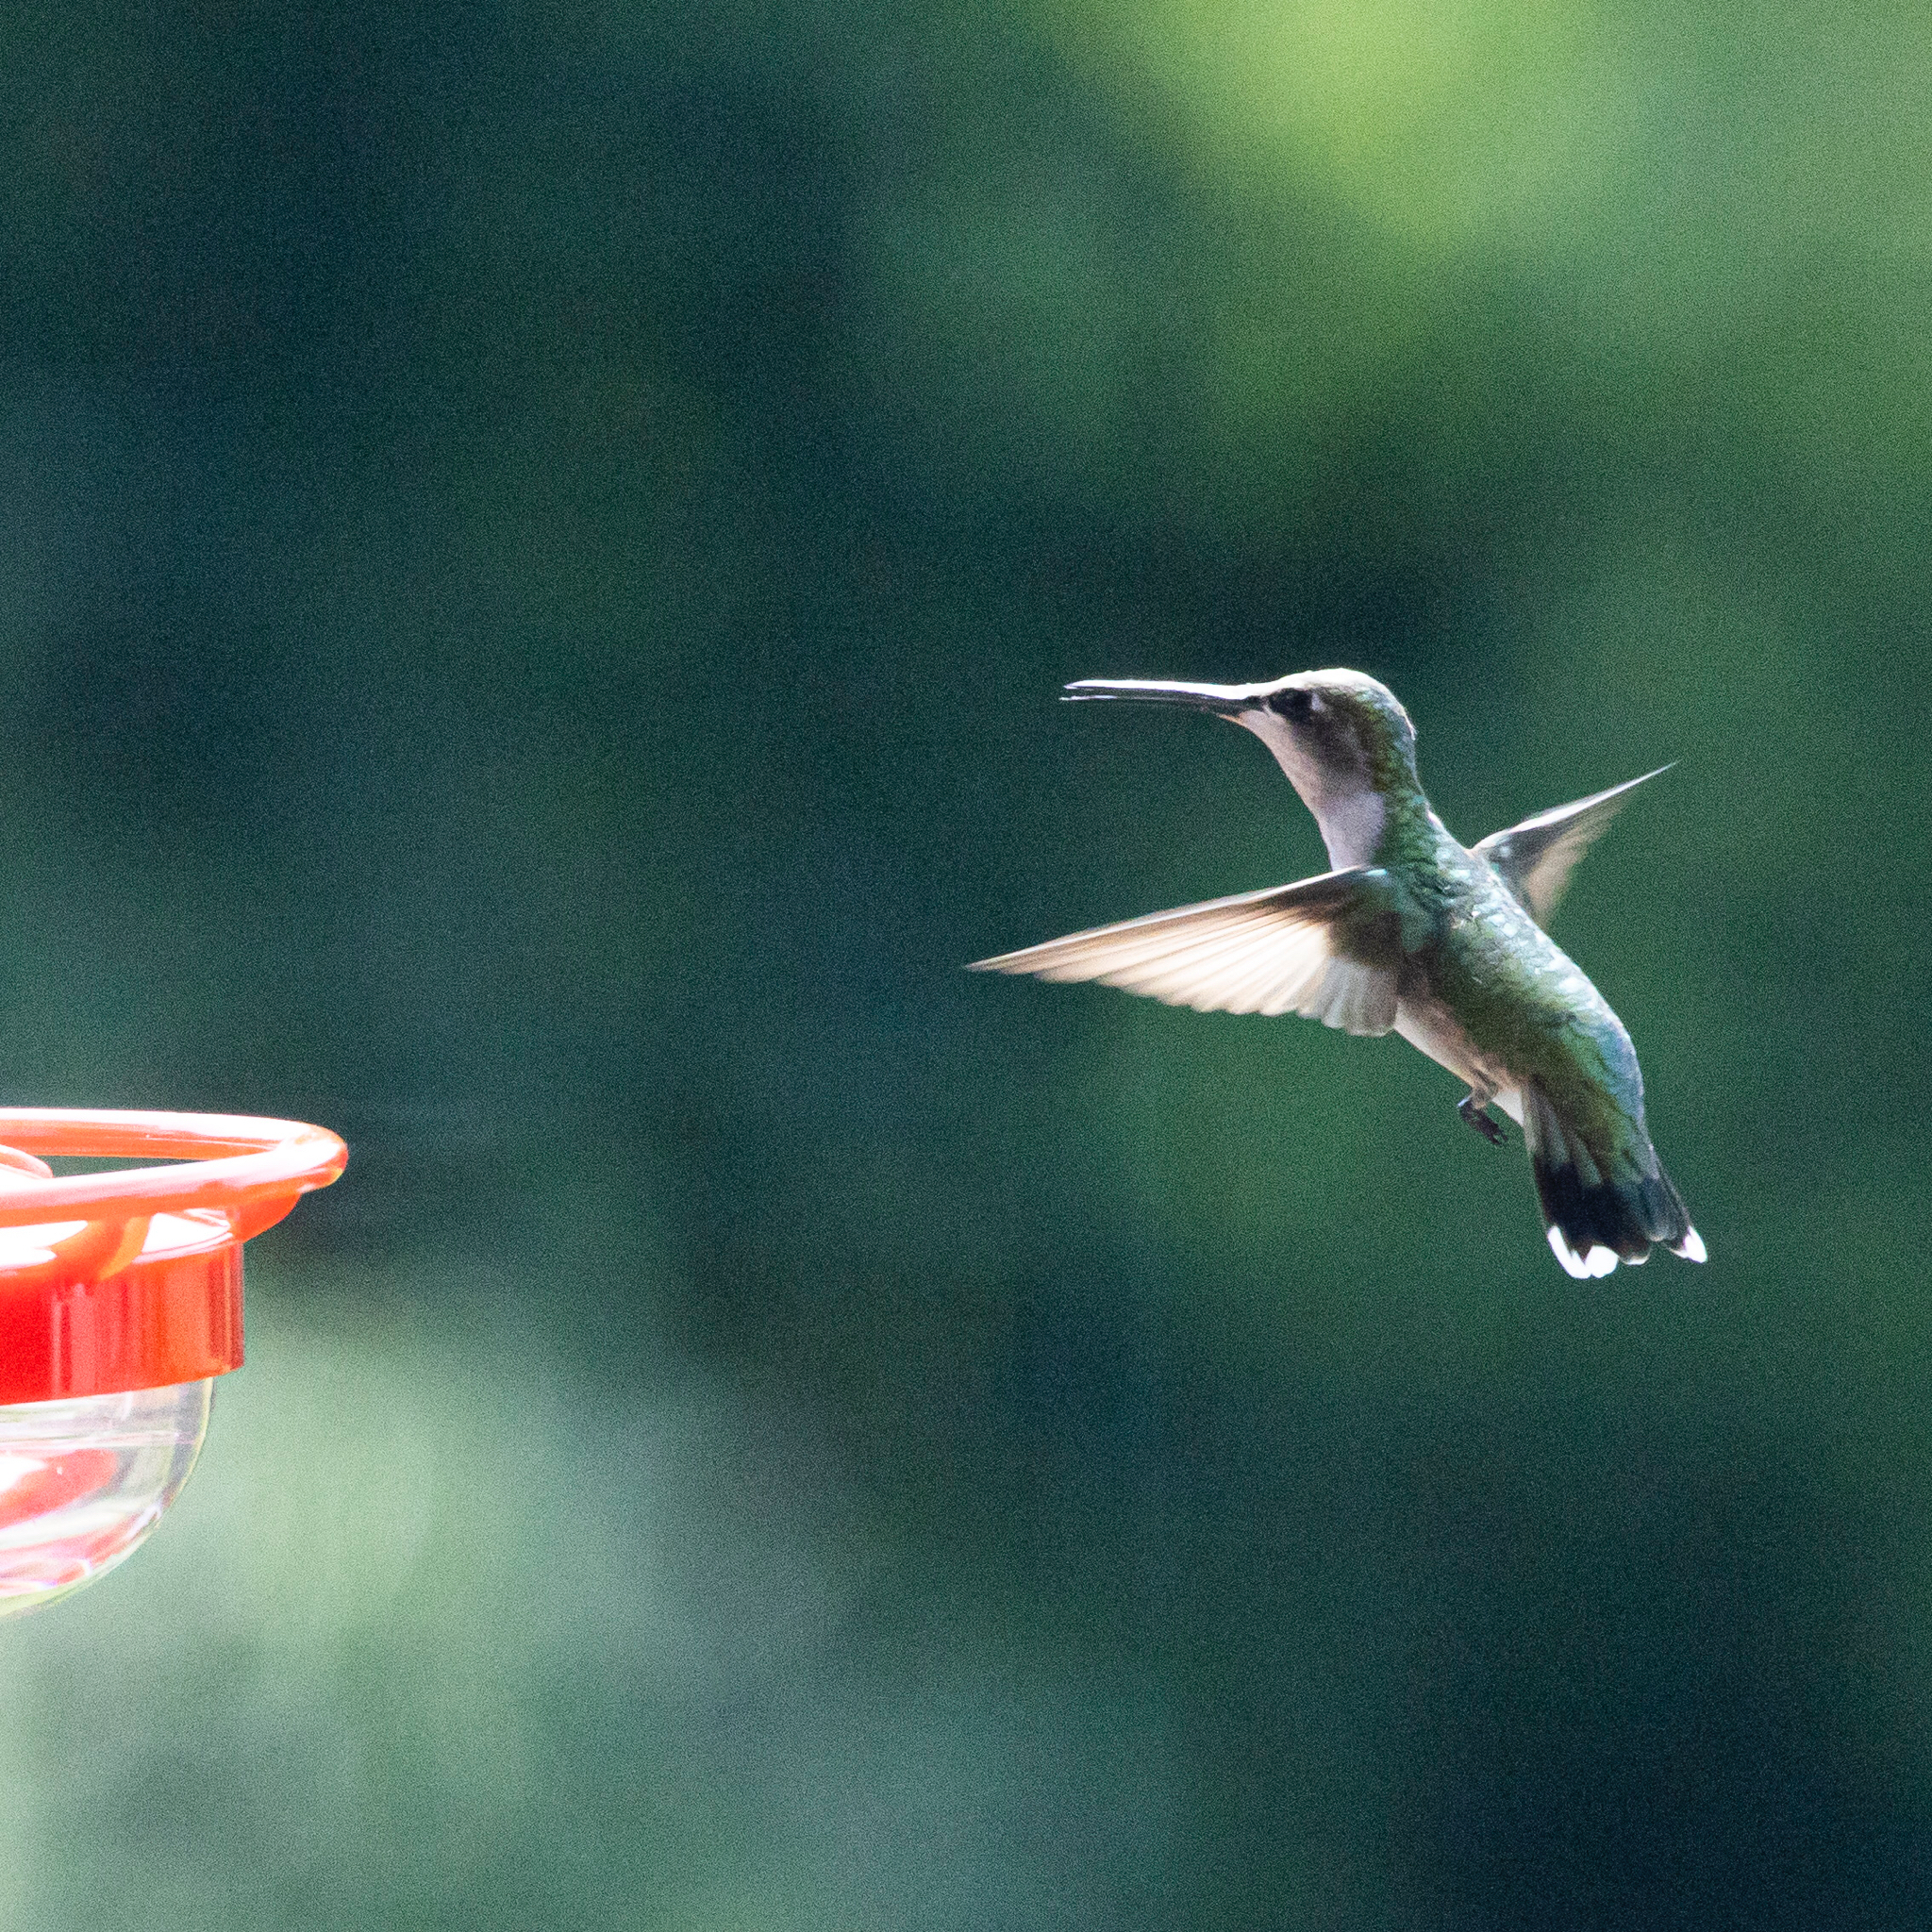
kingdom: Animalia
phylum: Chordata
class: Aves
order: Apodiformes
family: Trochilidae
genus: Archilochus
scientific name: Archilochus colubris
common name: Ruby-throated hummingbird
